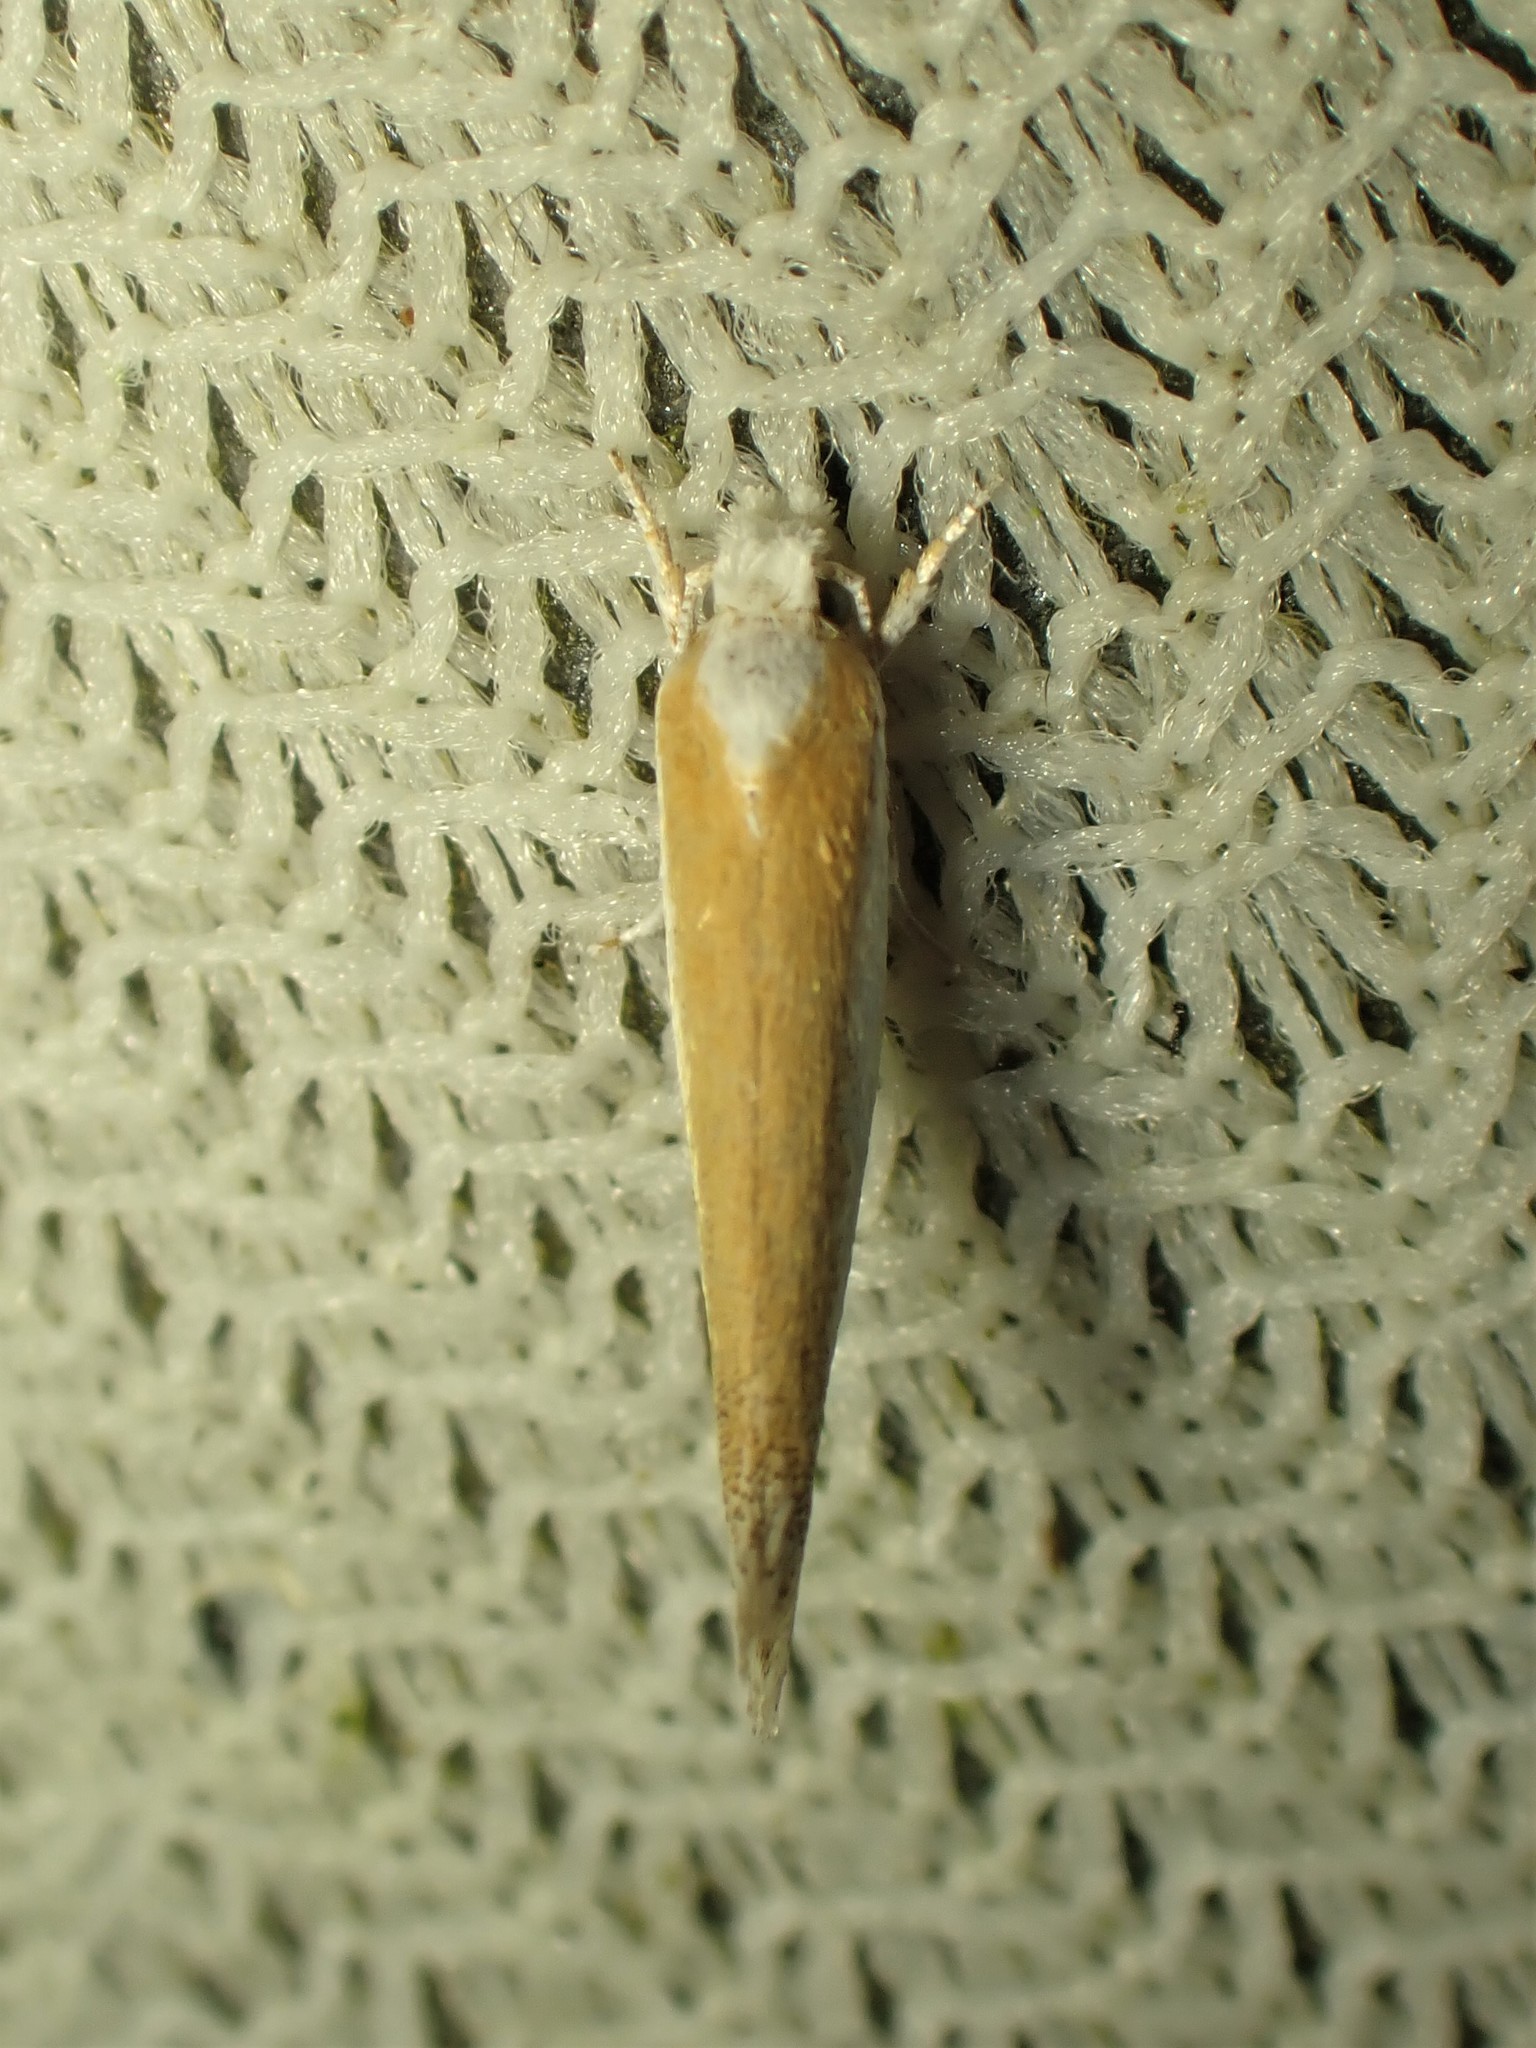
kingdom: Animalia
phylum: Arthropoda
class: Insecta
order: Lepidoptera
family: Yponomeutidae
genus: Zelleria
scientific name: Zelleria haimbachi
